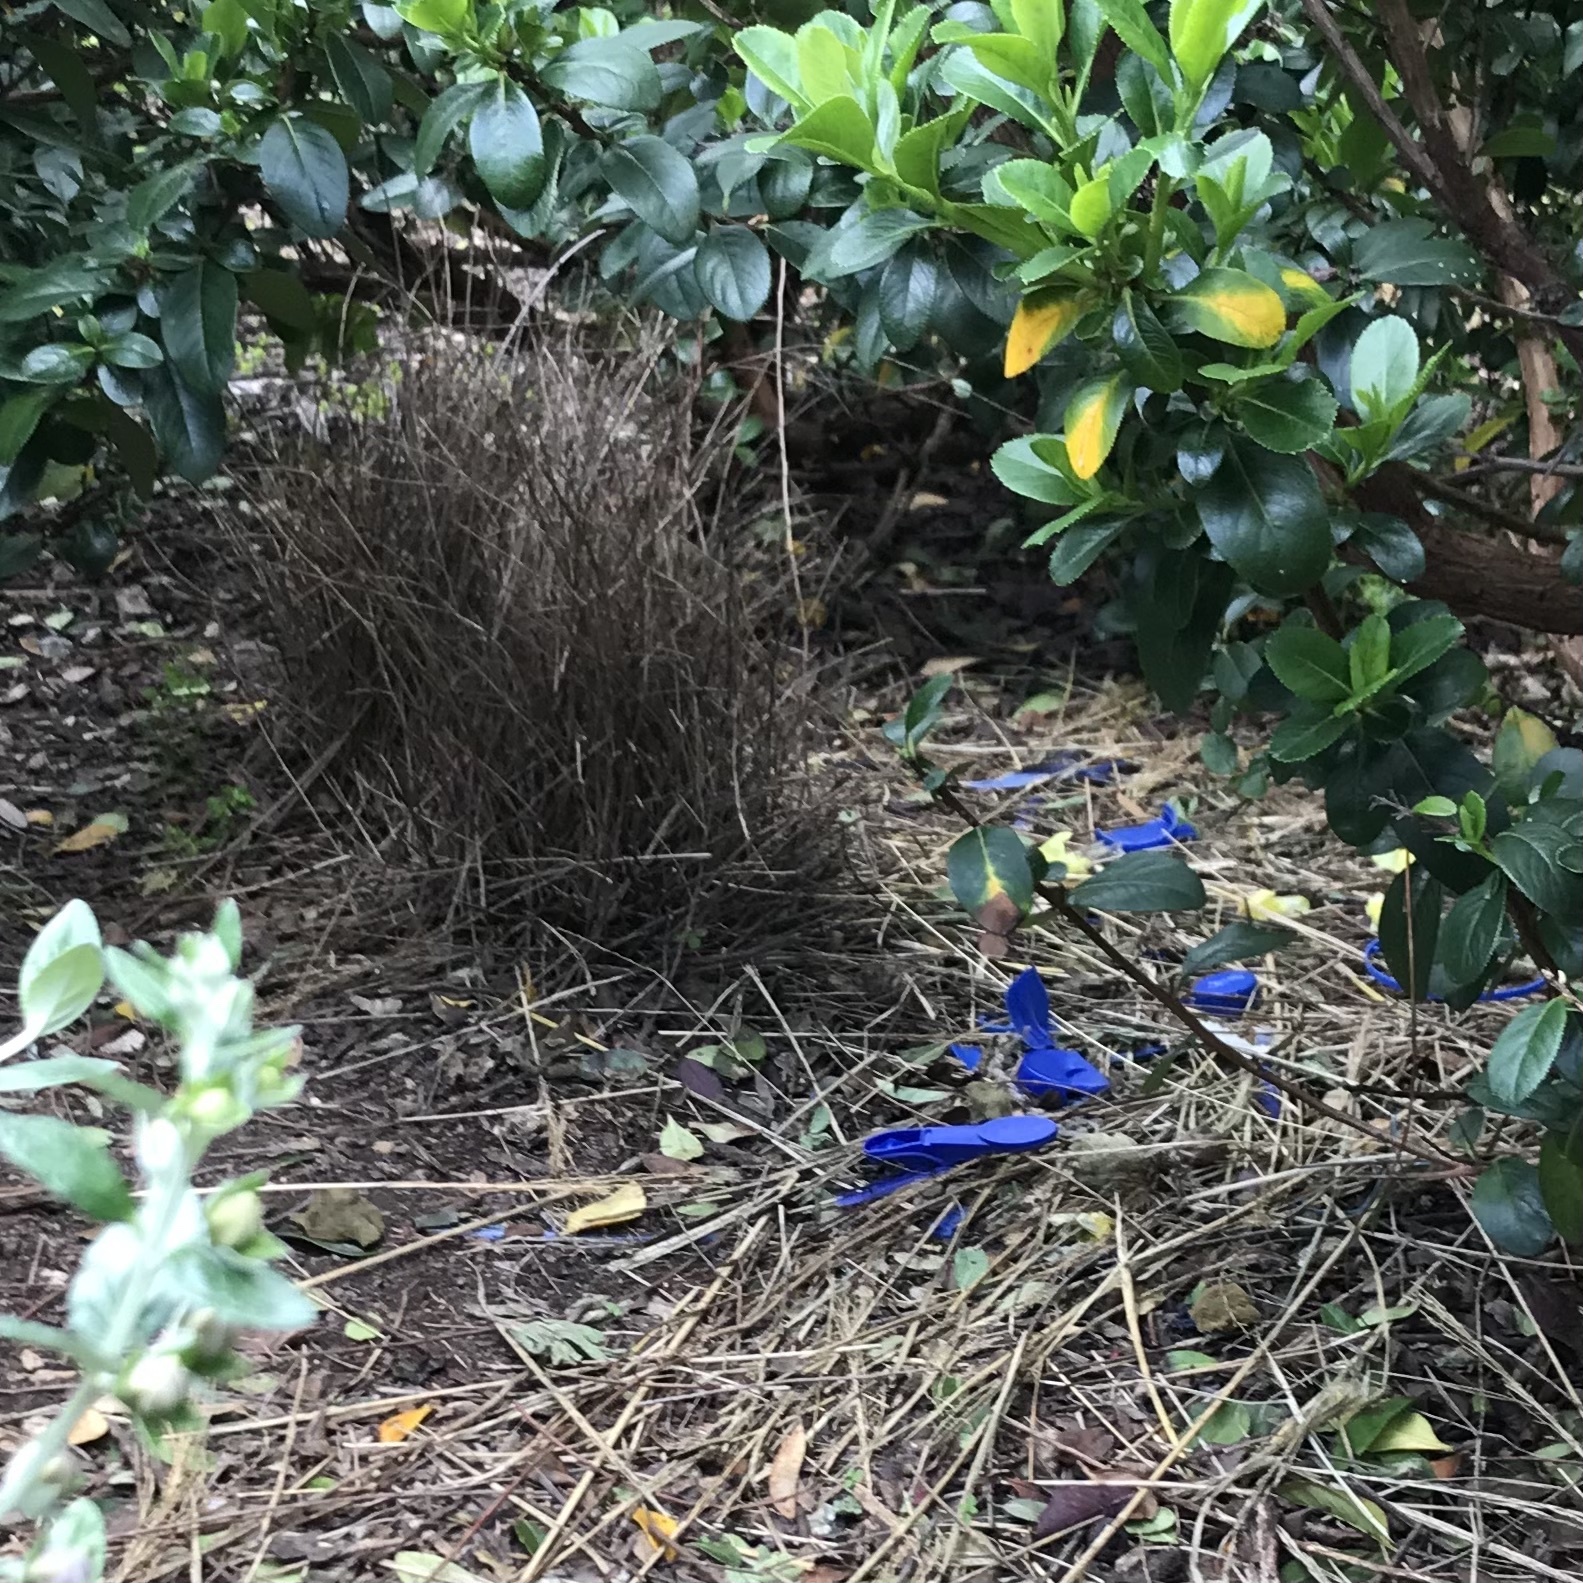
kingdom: Animalia
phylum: Chordata
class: Aves
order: Passeriformes
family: Ptilonorhynchidae
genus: Ptilonorhynchus
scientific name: Ptilonorhynchus violaceus
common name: Satin bowerbird
